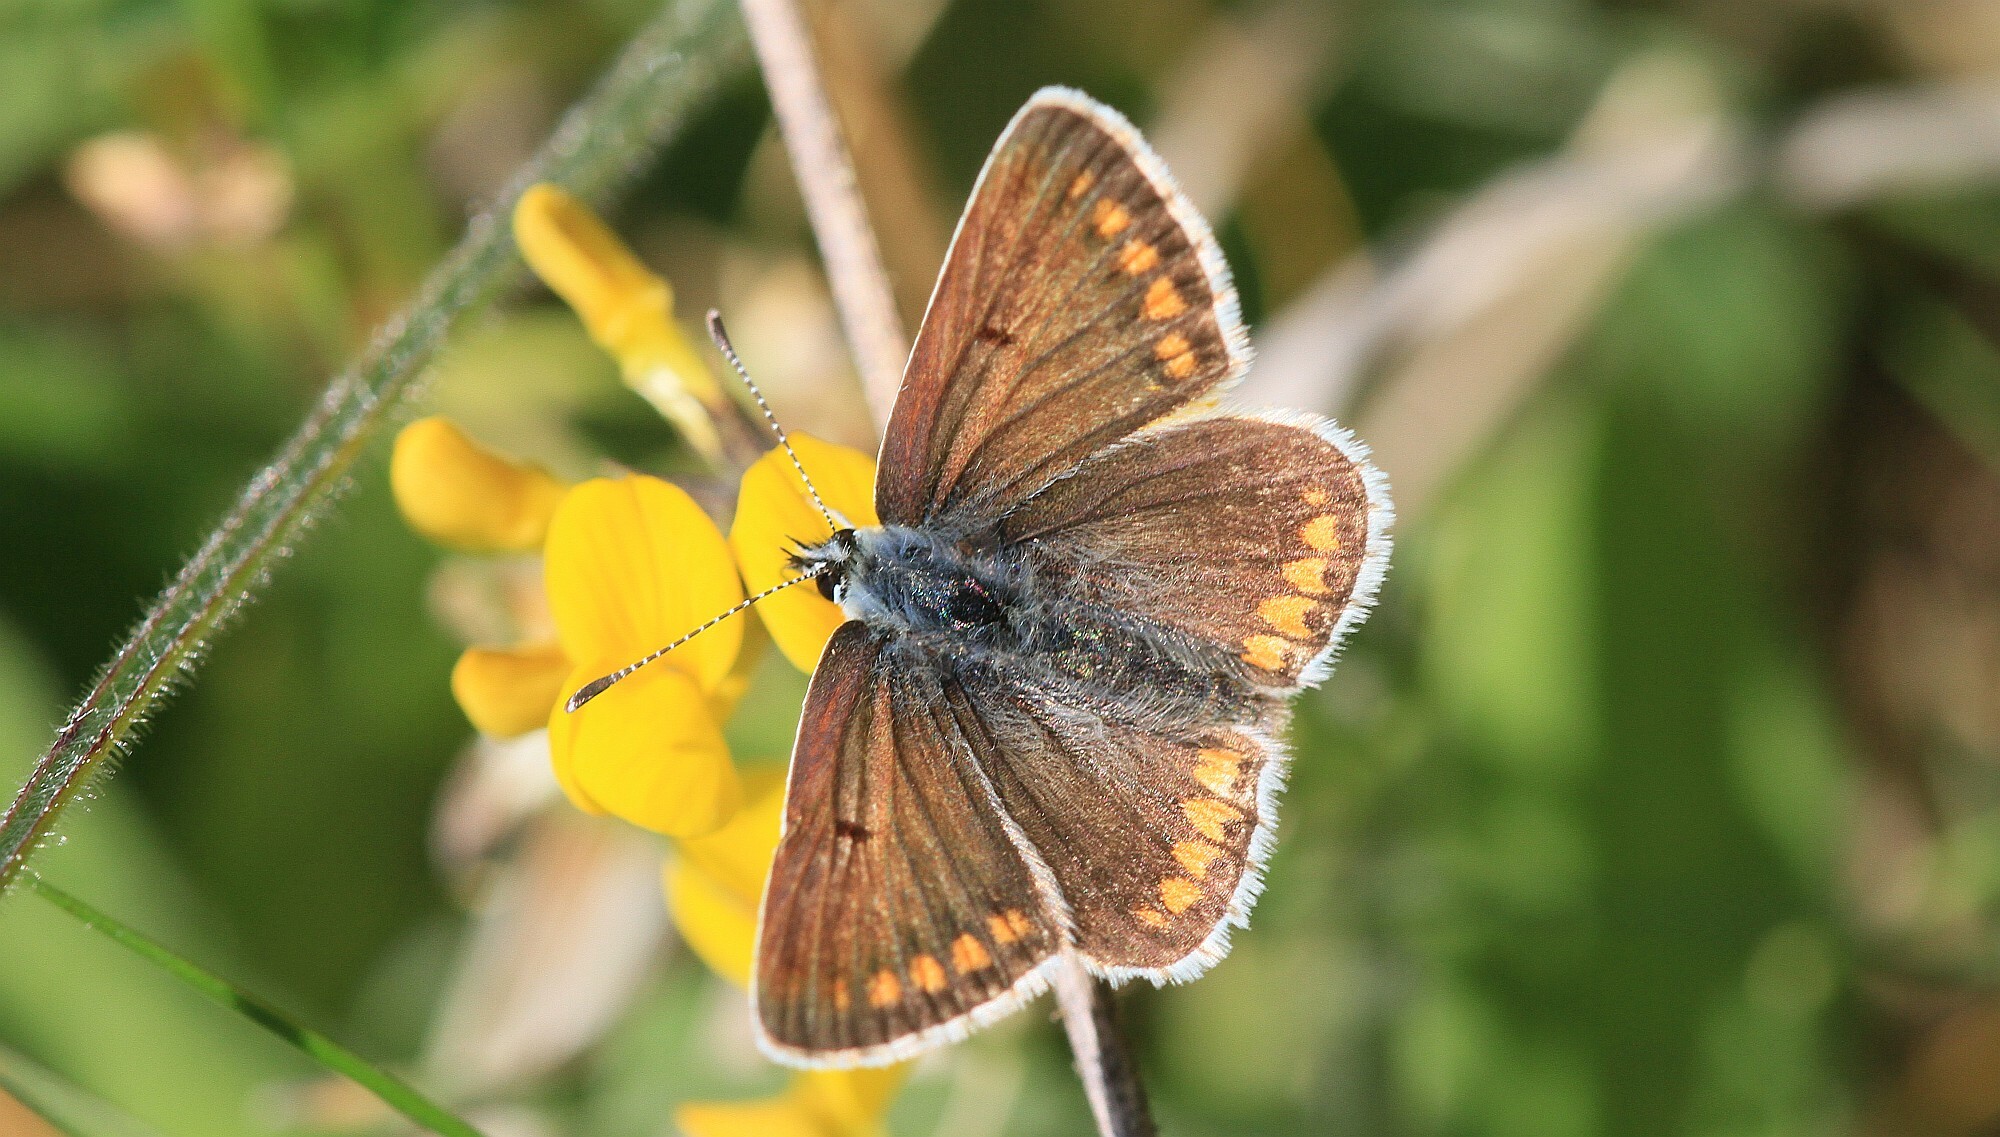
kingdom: Animalia
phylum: Arthropoda
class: Insecta
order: Lepidoptera
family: Lycaenidae
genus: Aricia
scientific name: Aricia agestis
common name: Brown argus
